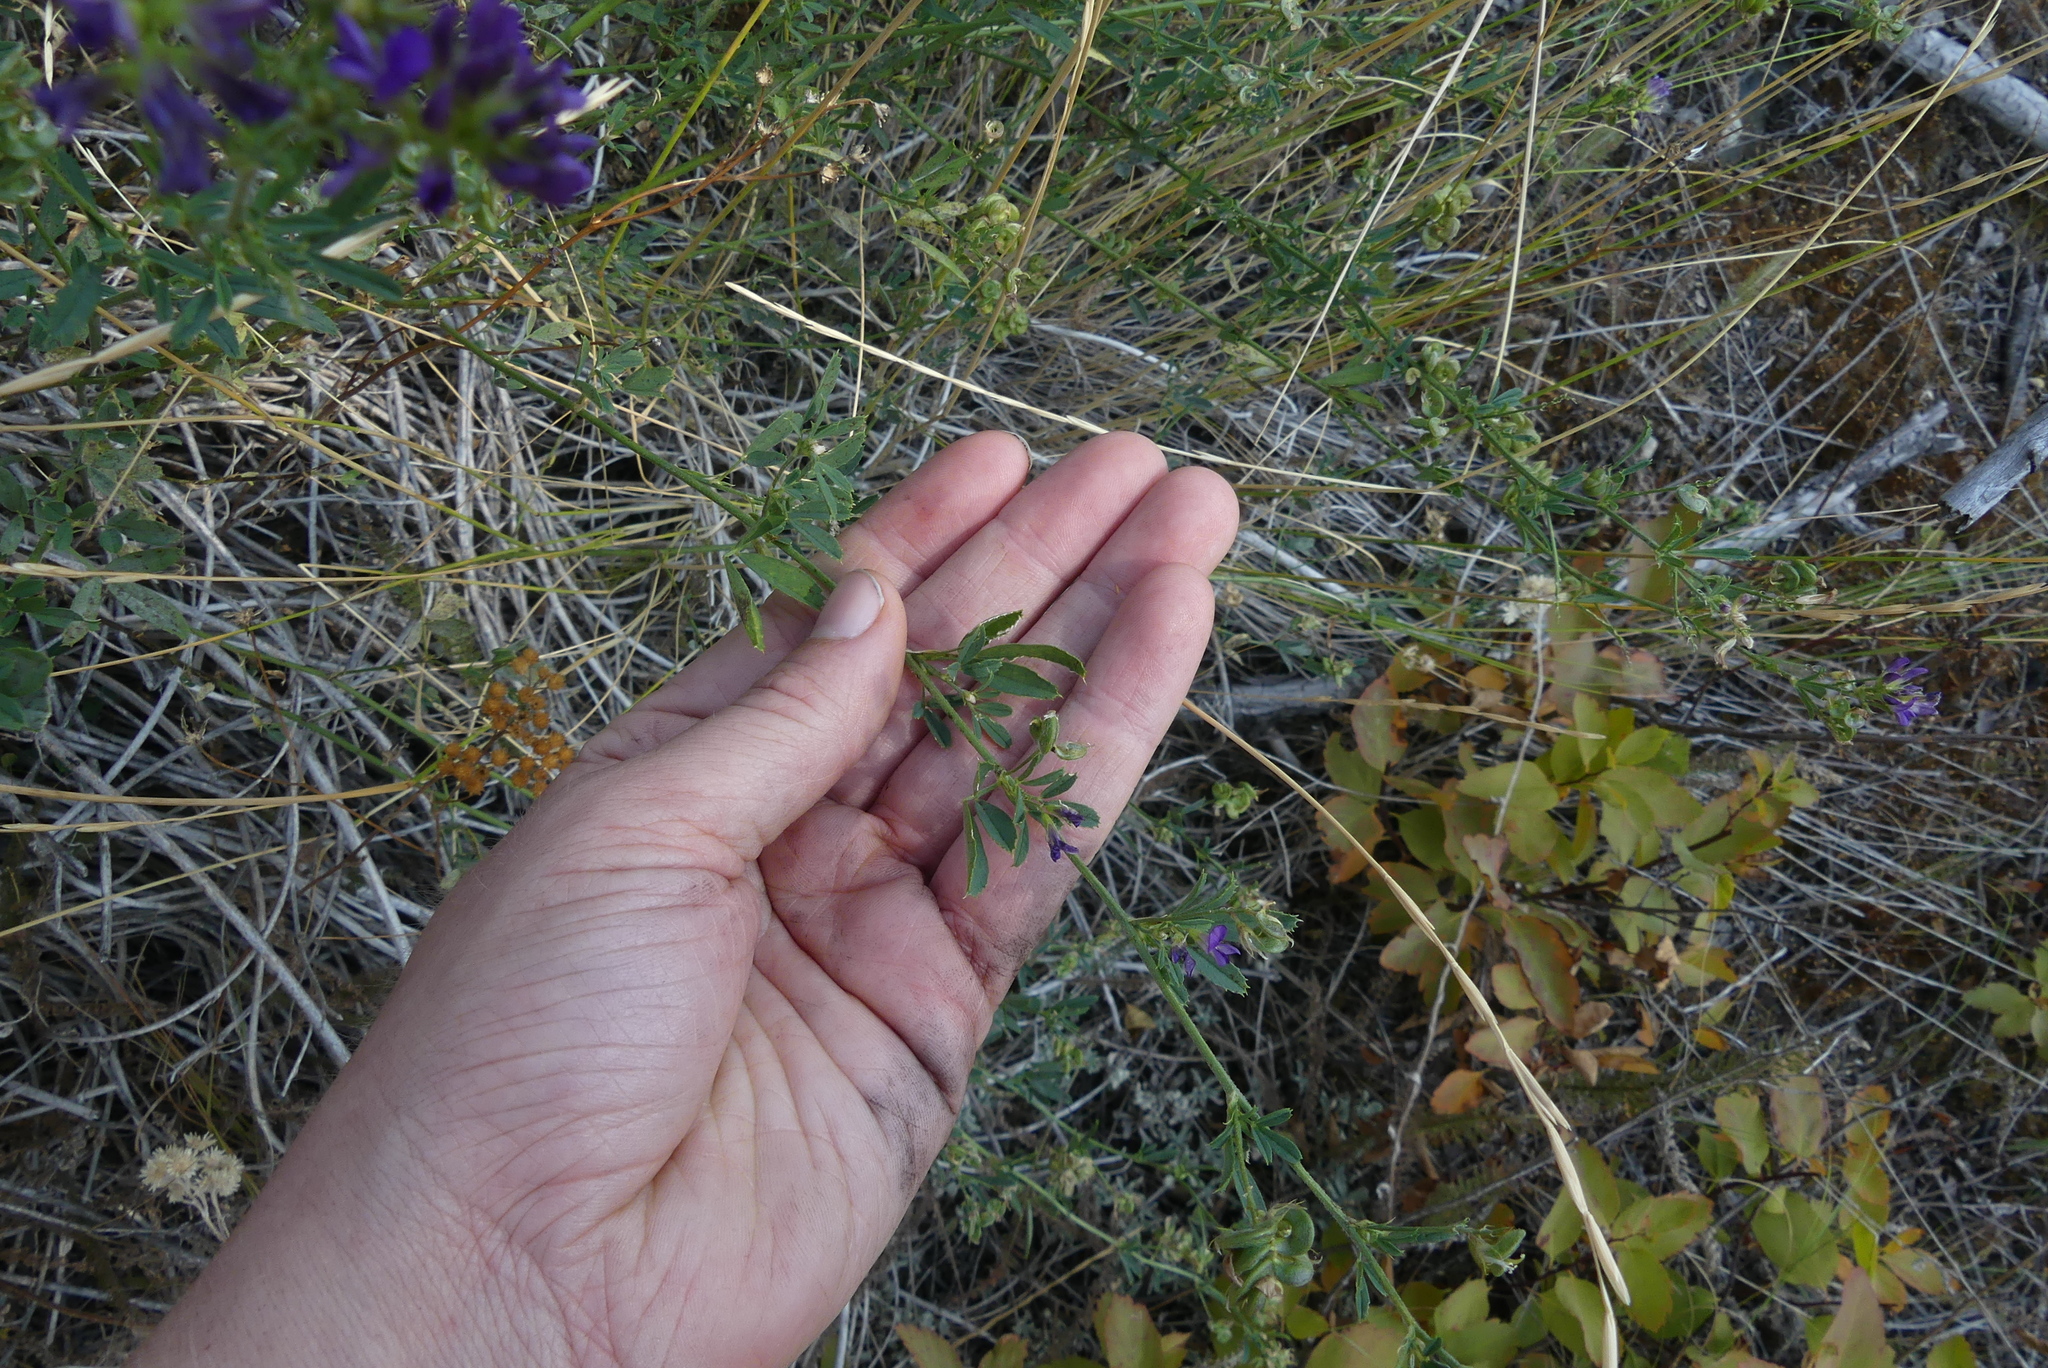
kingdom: Plantae
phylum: Tracheophyta
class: Magnoliopsida
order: Fabales
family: Fabaceae
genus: Medicago
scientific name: Medicago sativa
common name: Alfalfa
